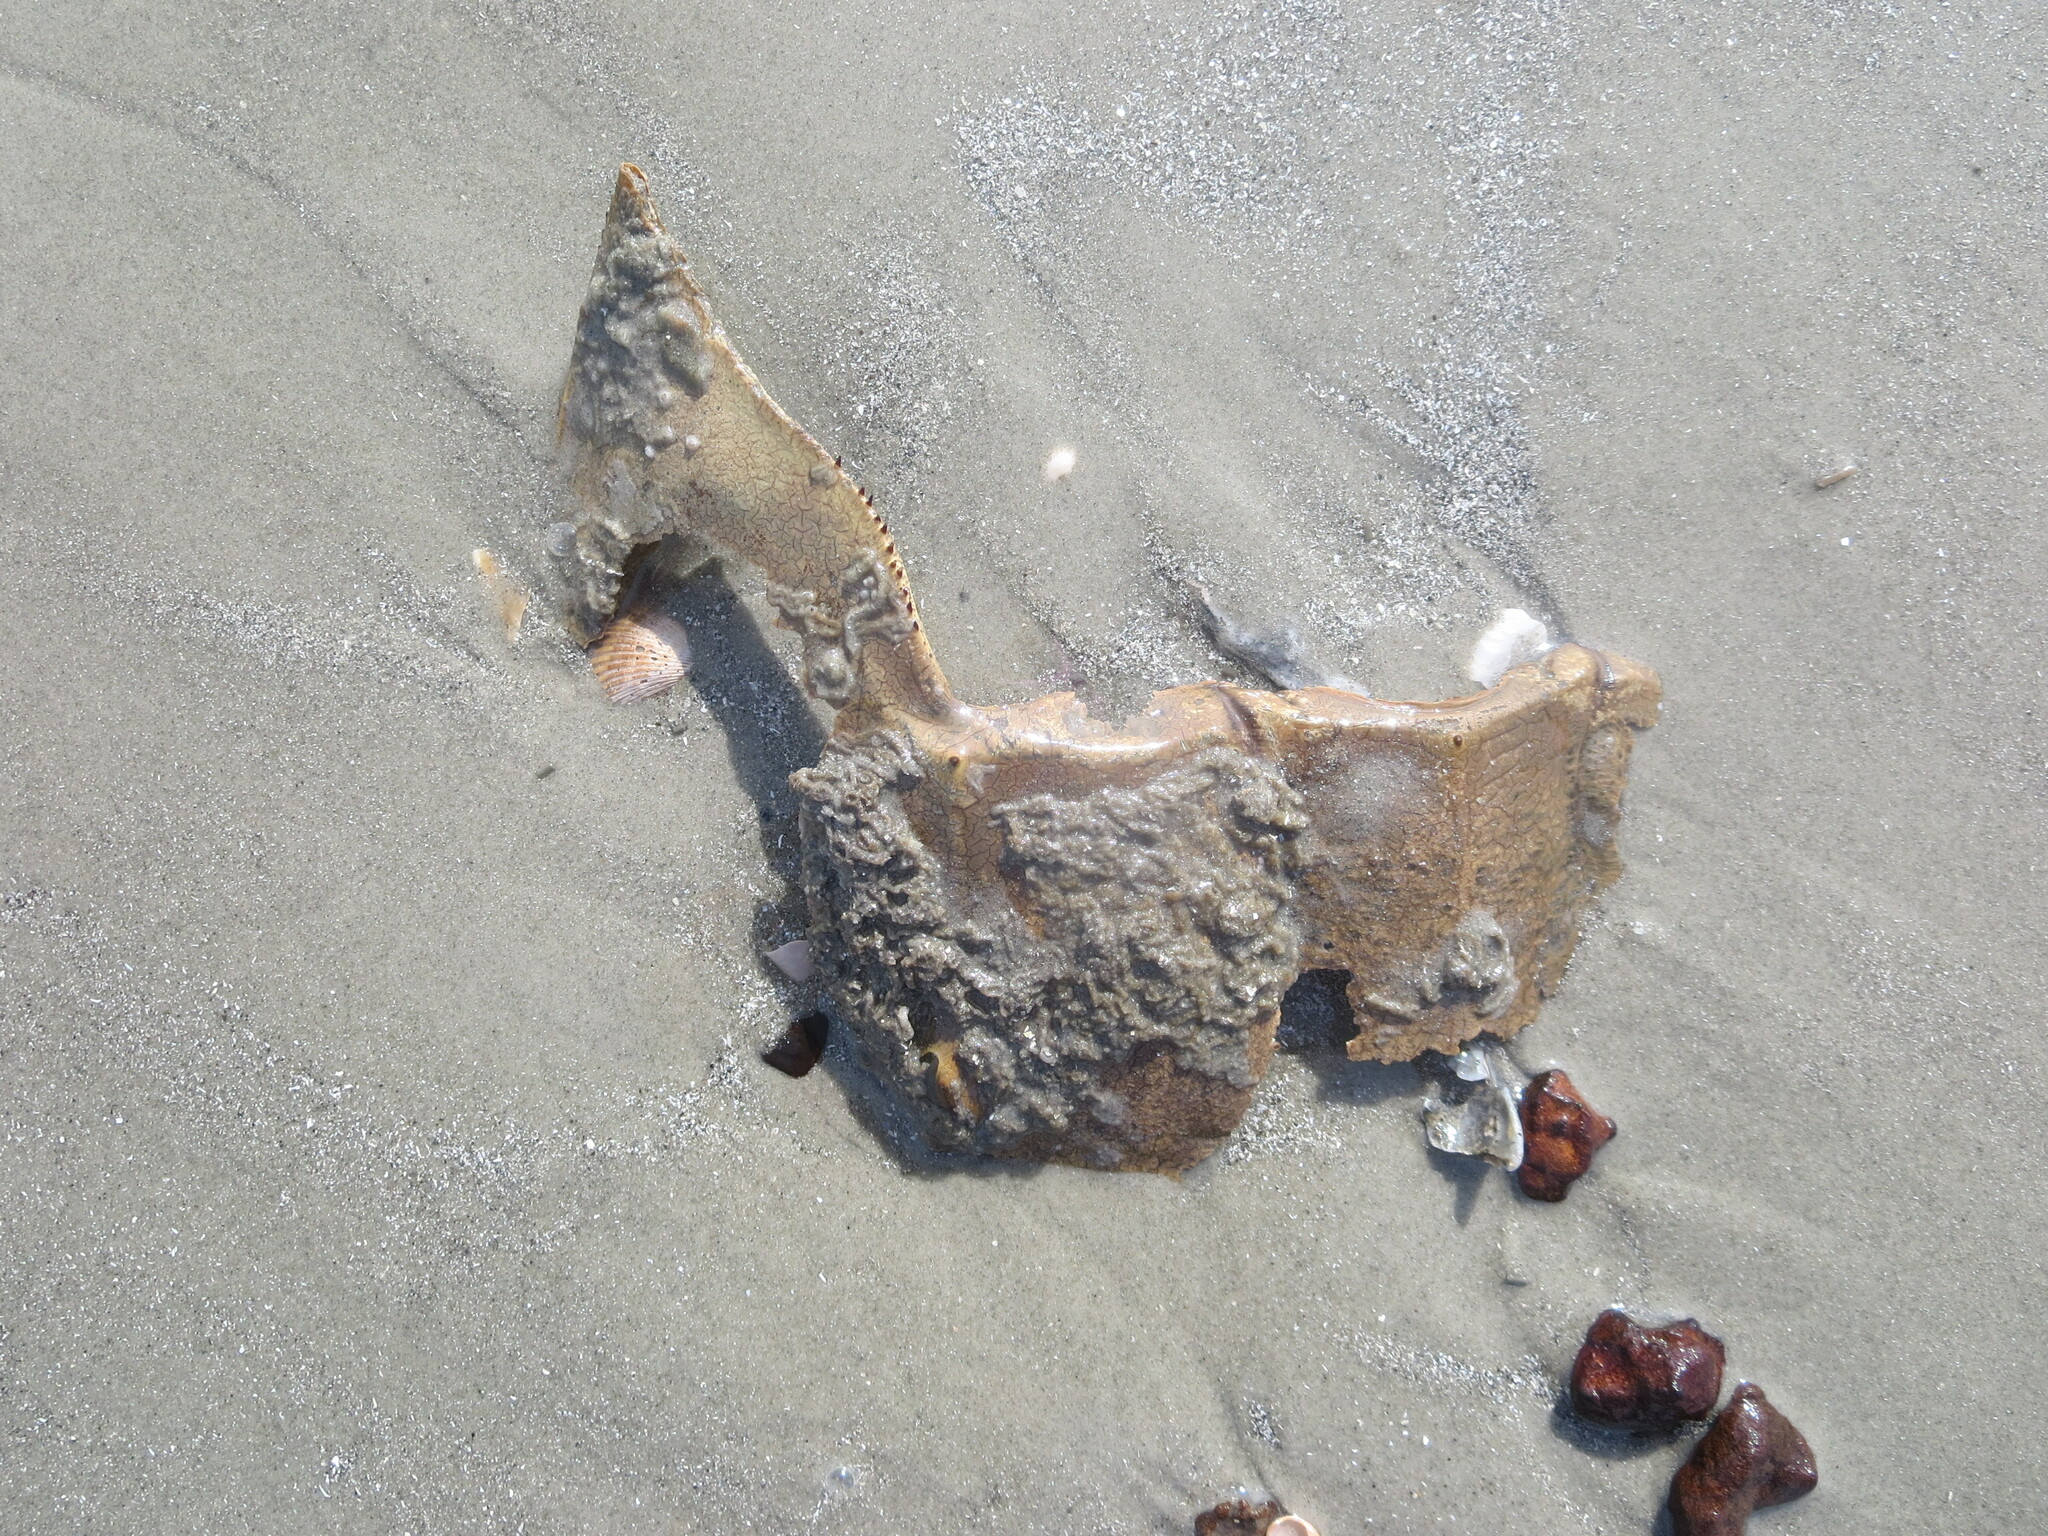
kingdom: Animalia
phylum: Arthropoda
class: Merostomata
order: Xiphosurida
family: Limulidae
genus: Limulus
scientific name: Limulus polyphemus
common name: Horseshoe crab
